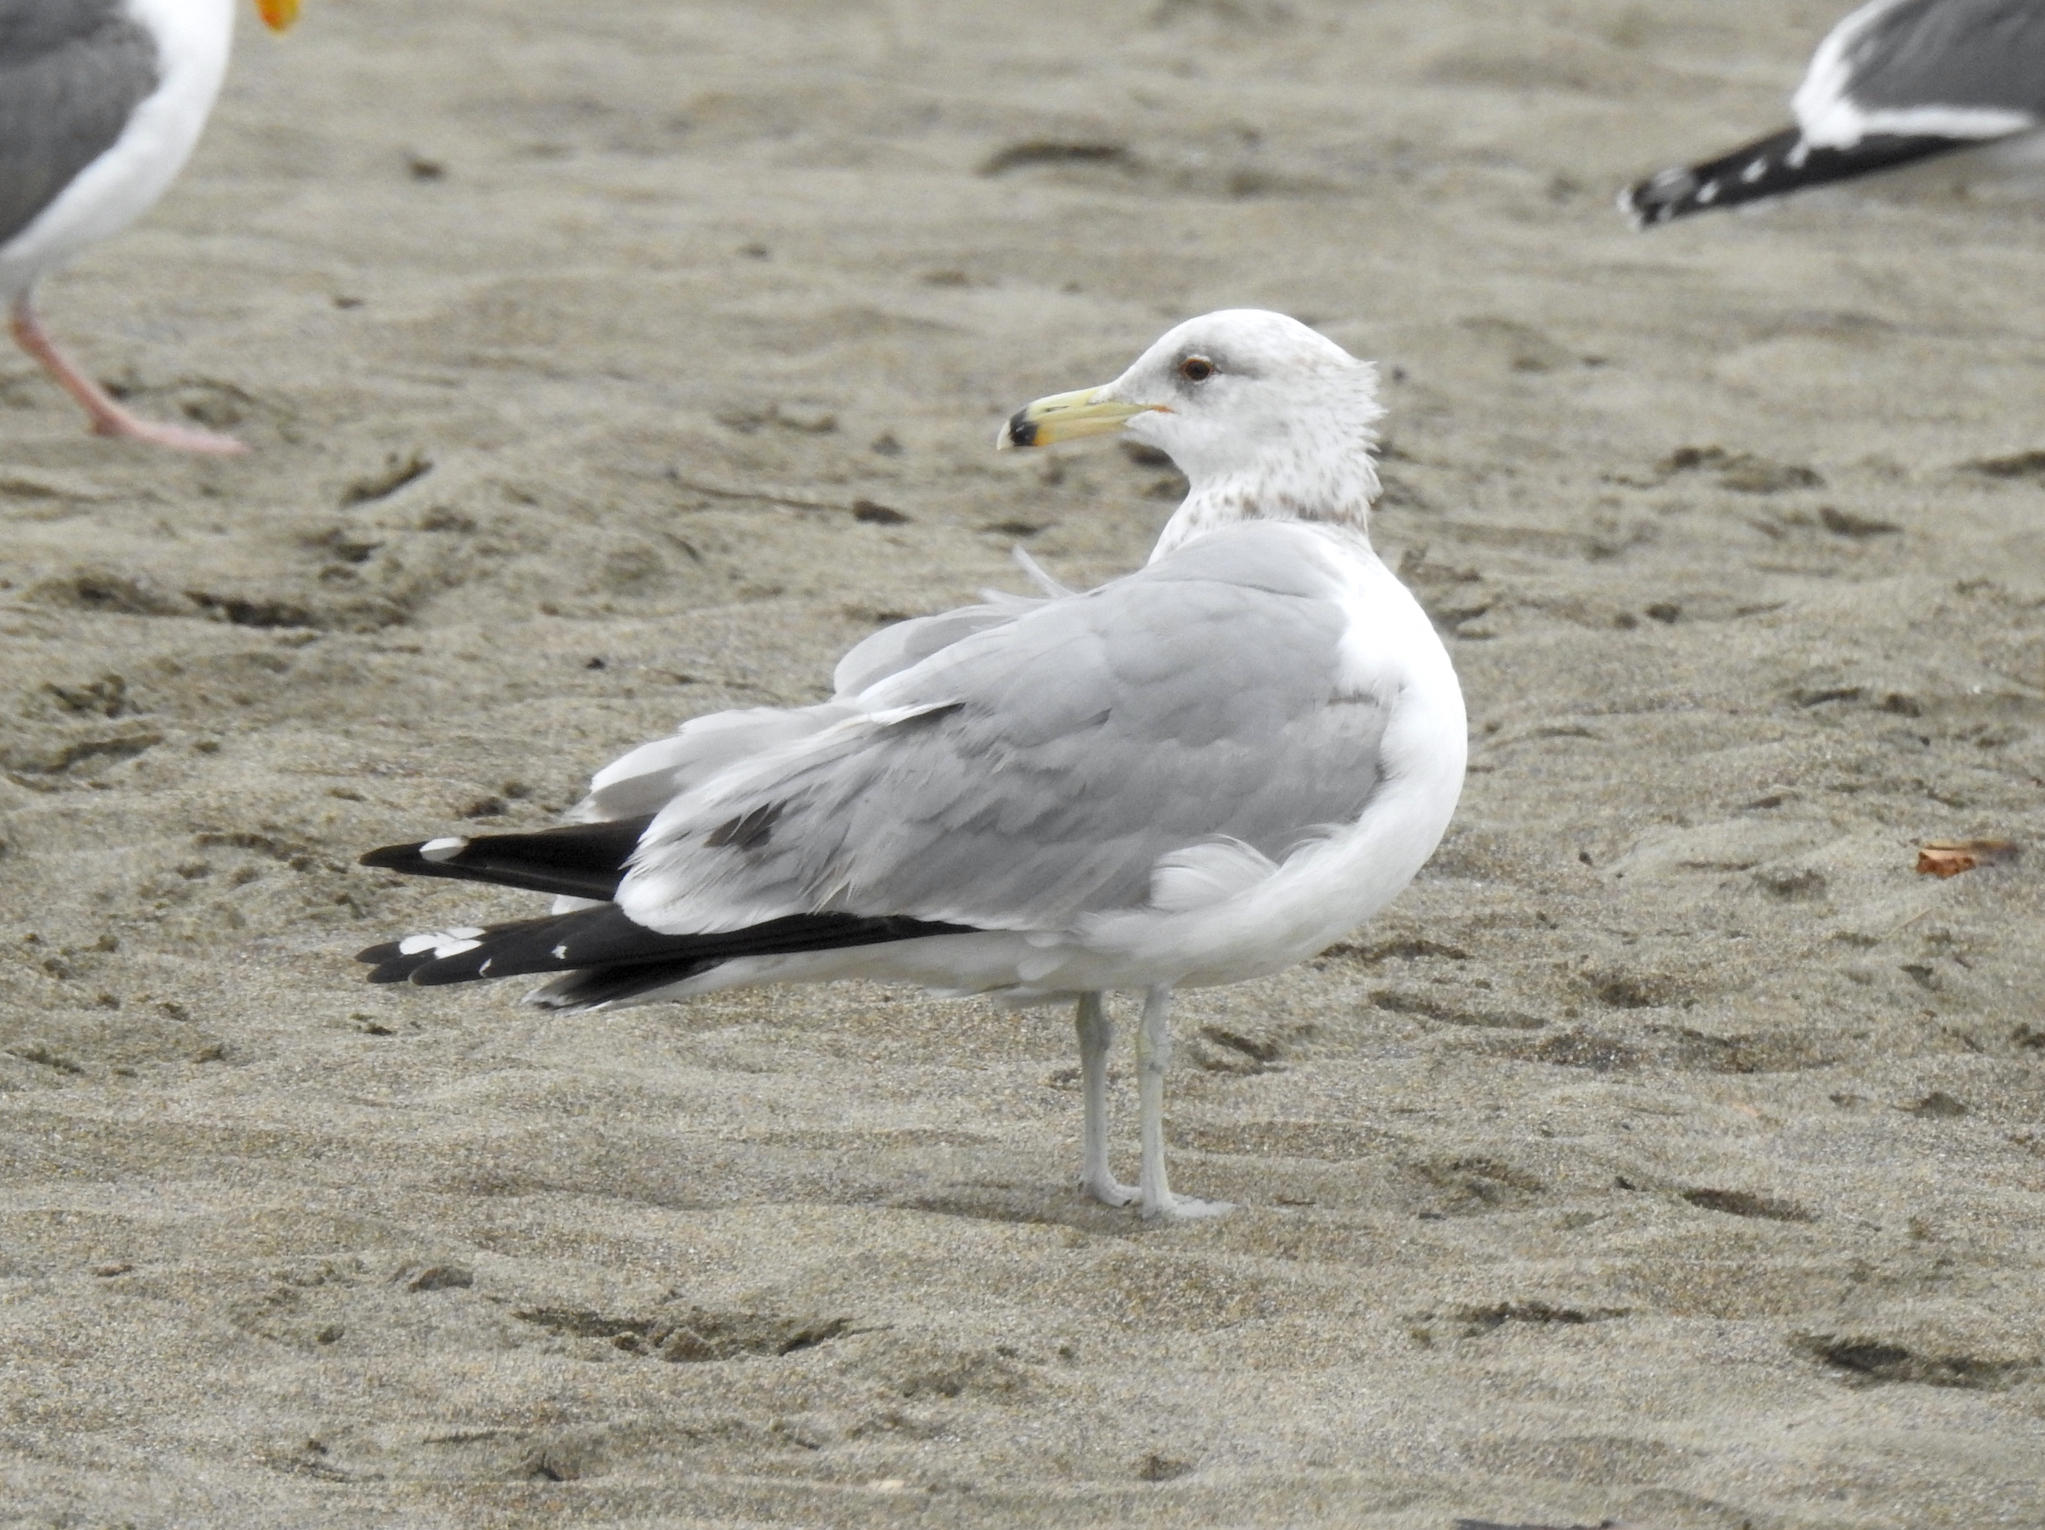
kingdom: Animalia
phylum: Chordata
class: Aves
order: Charadriiformes
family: Laridae
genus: Larus
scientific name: Larus californicus
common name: California gull
